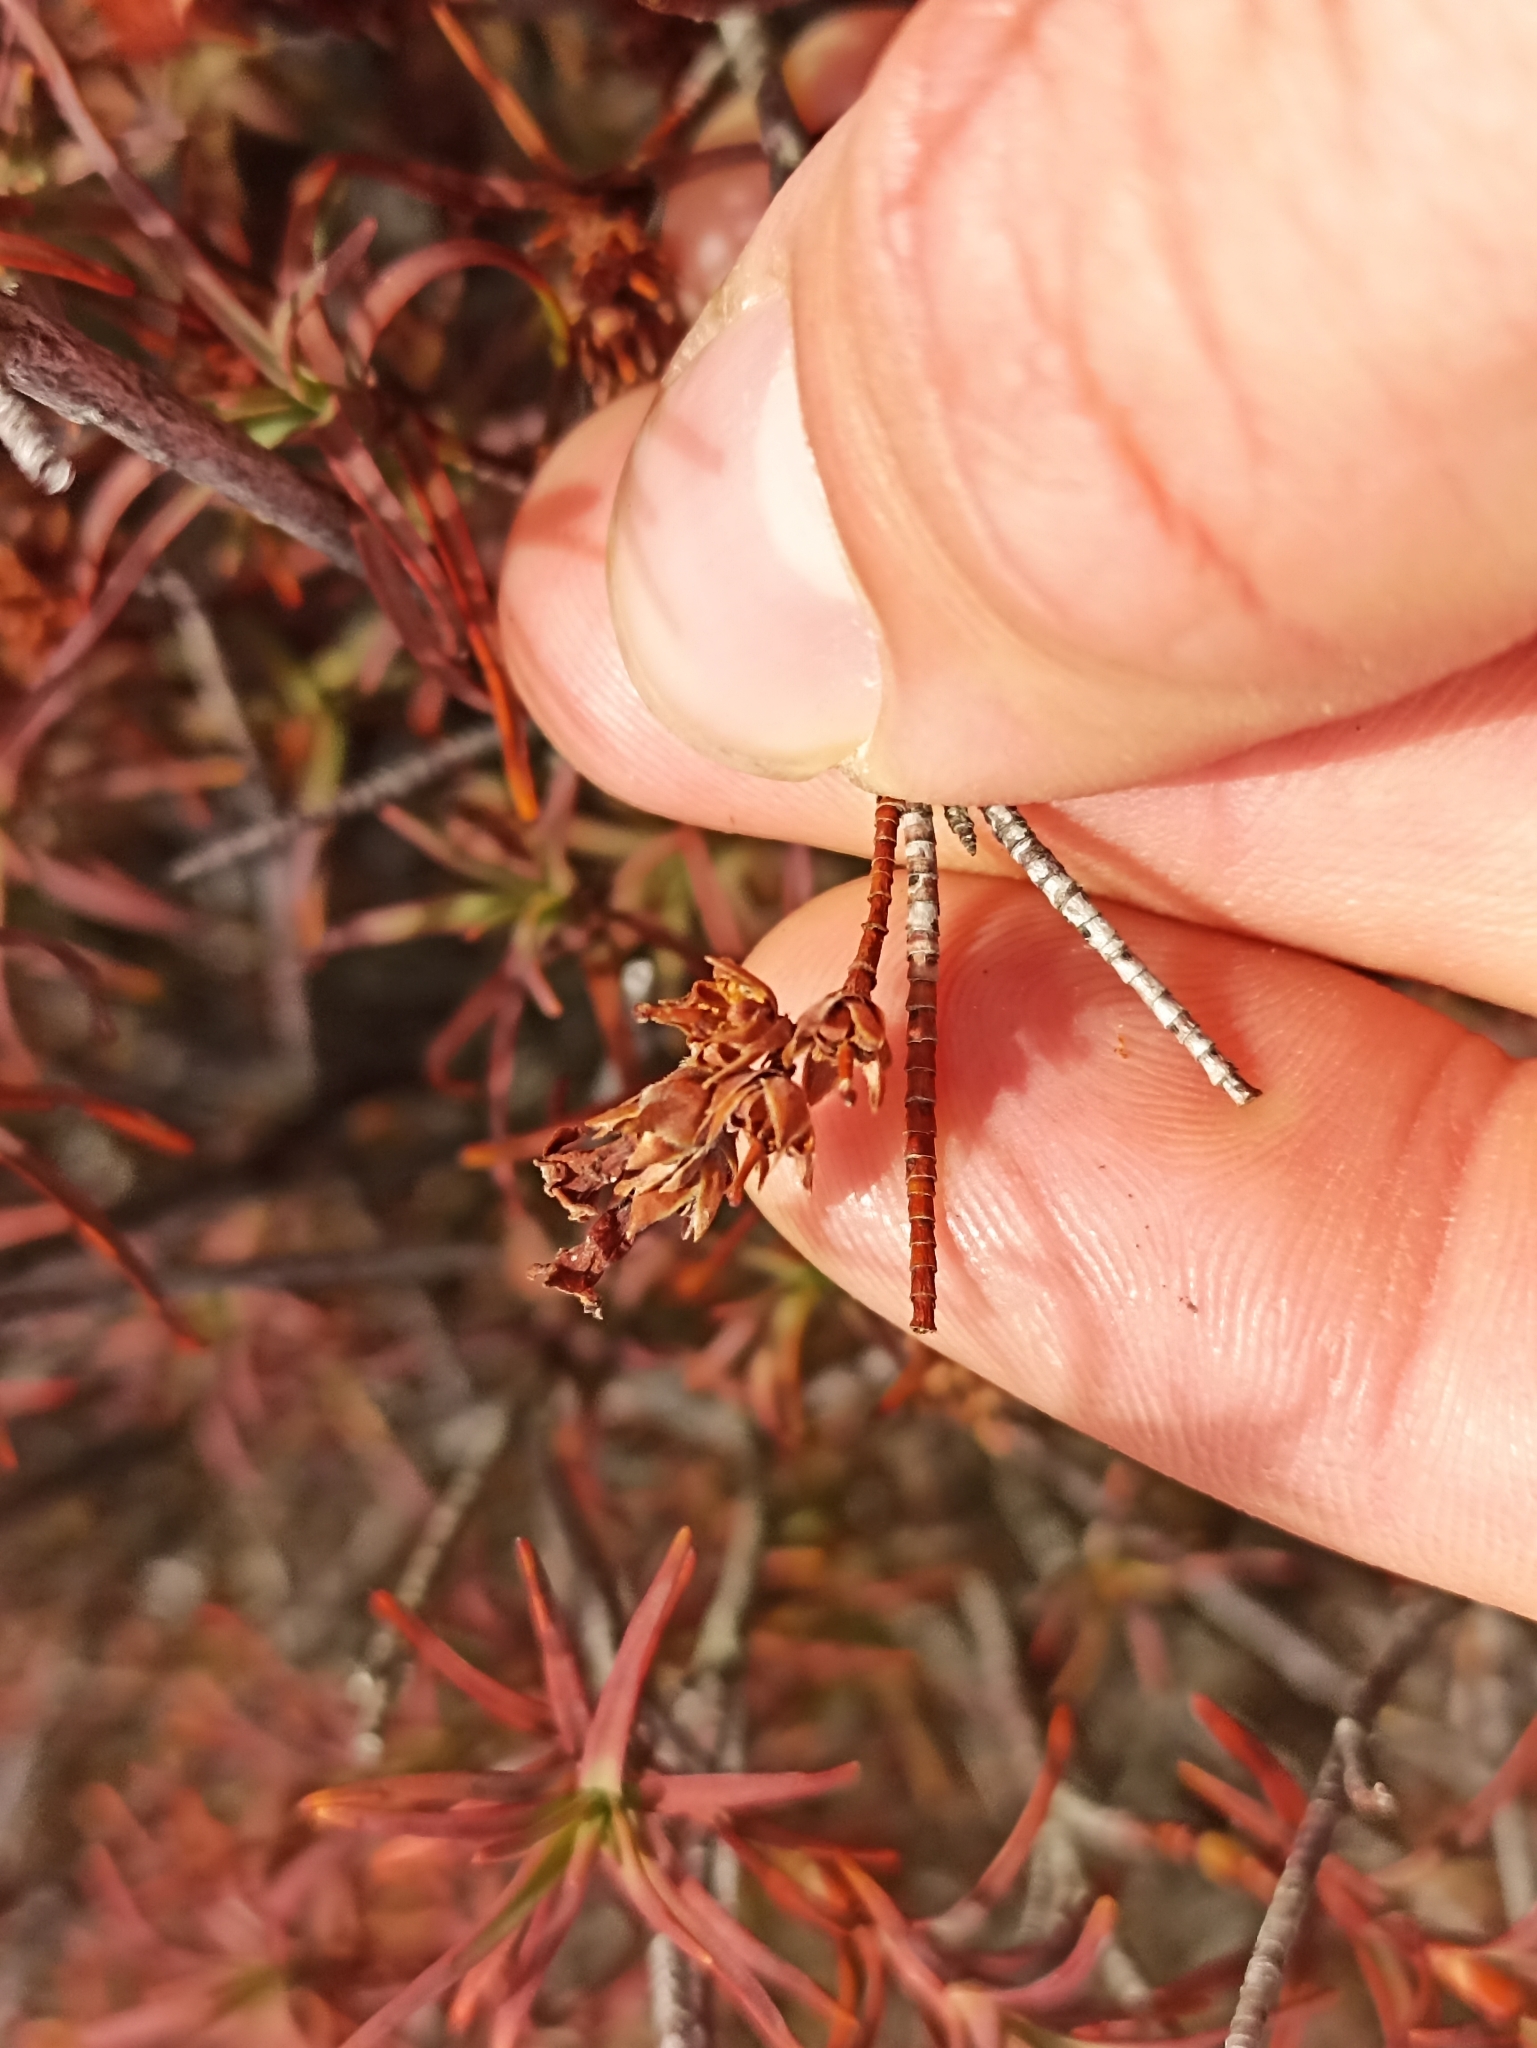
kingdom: Plantae
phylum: Tracheophyta
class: Magnoliopsida
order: Ericales
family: Ericaceae
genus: Dracophyllum
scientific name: Dracophyllum recurvum
